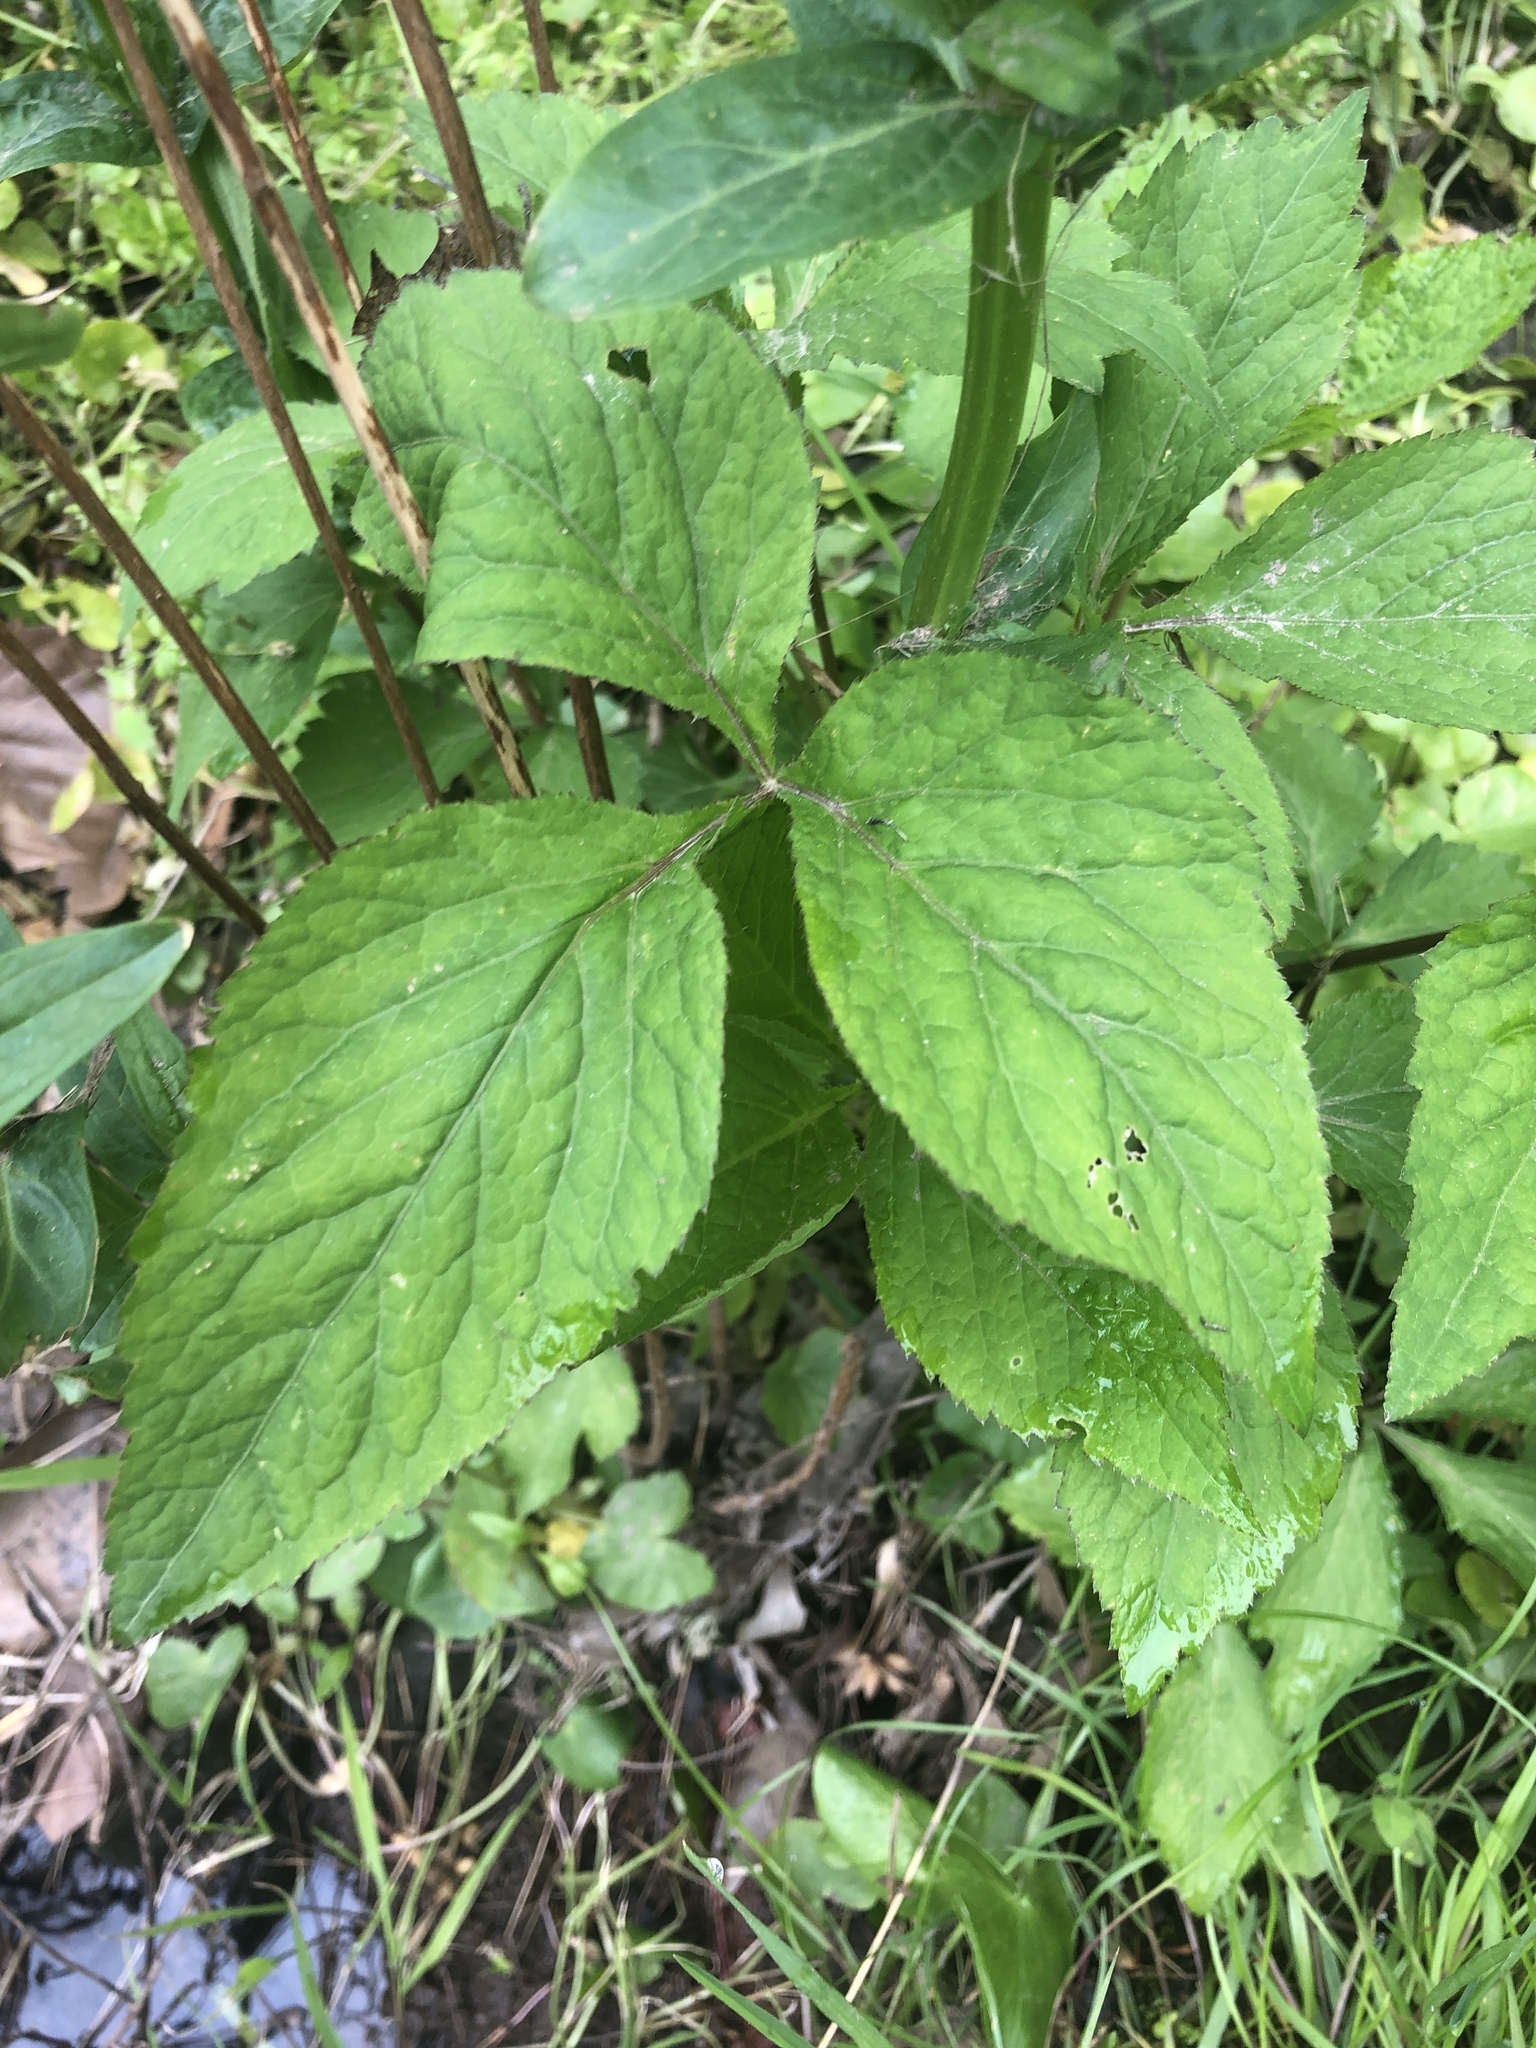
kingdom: Plantae
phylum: Tracheophyta
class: Magnoliopsida
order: Apiales
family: Apiaceae
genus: Cryptotaenia
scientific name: Cryptotaenia canadensis
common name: Honewort
